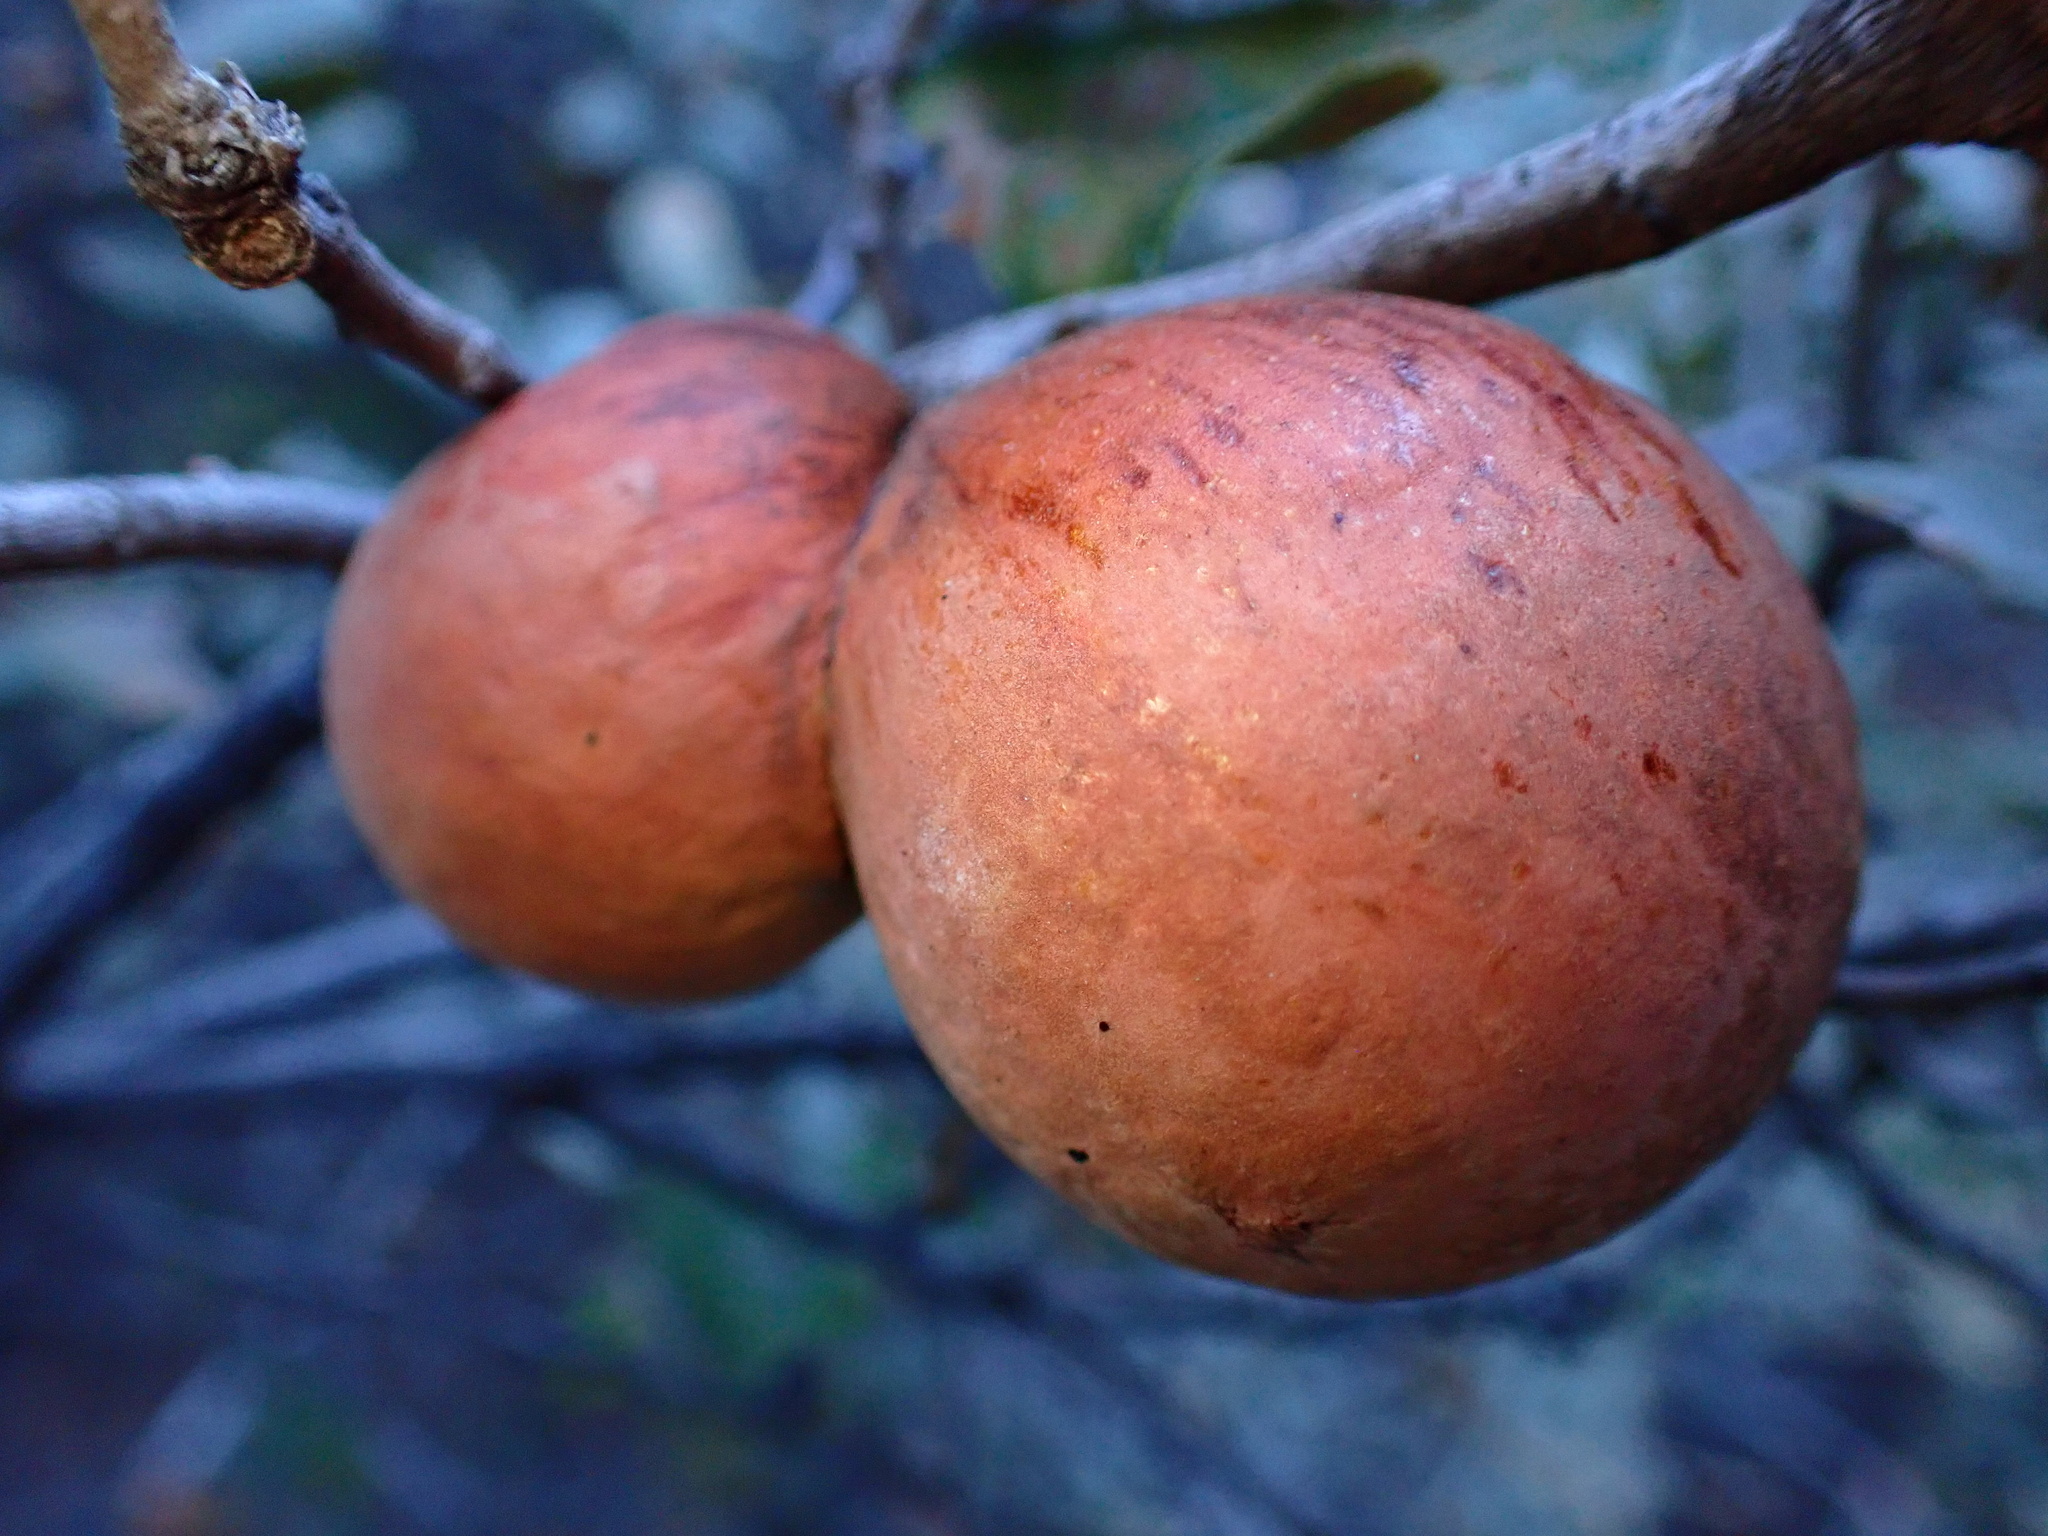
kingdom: Animalia
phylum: Arthropoda
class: Insecta
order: Hymenoptera
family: Cynipidae
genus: Andricus
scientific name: Andricus quercuscalifornicus
